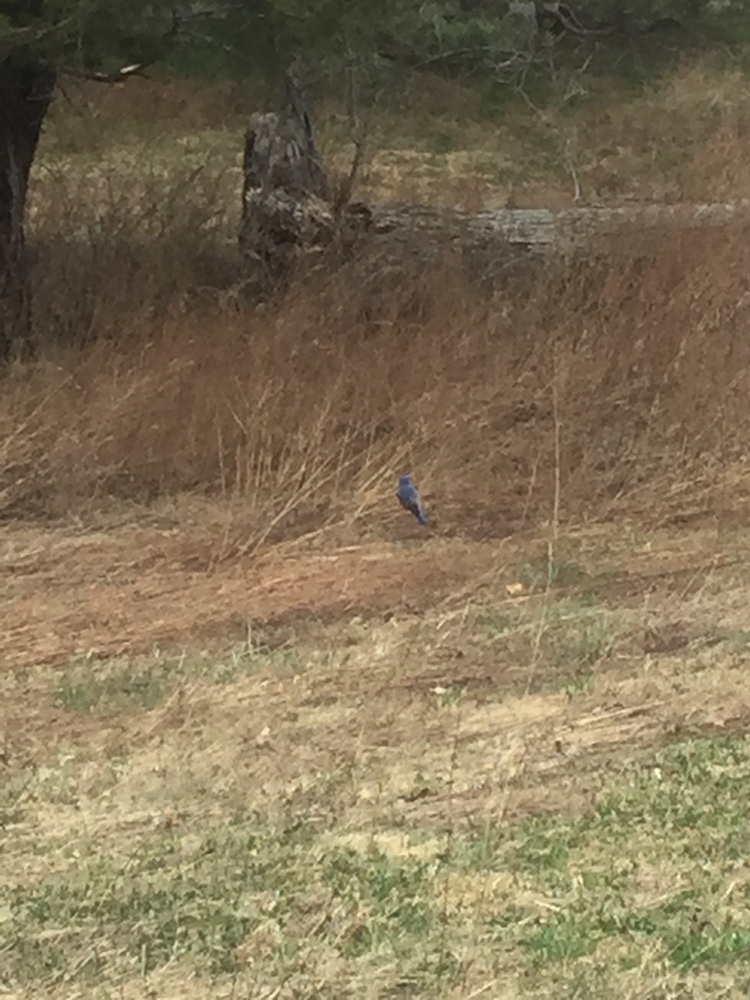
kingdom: Animalia
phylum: Chordata
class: Aves
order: Passeriformes
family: Turdidae
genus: Sialia
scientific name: Sialia sialis
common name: Eastern bluebird
